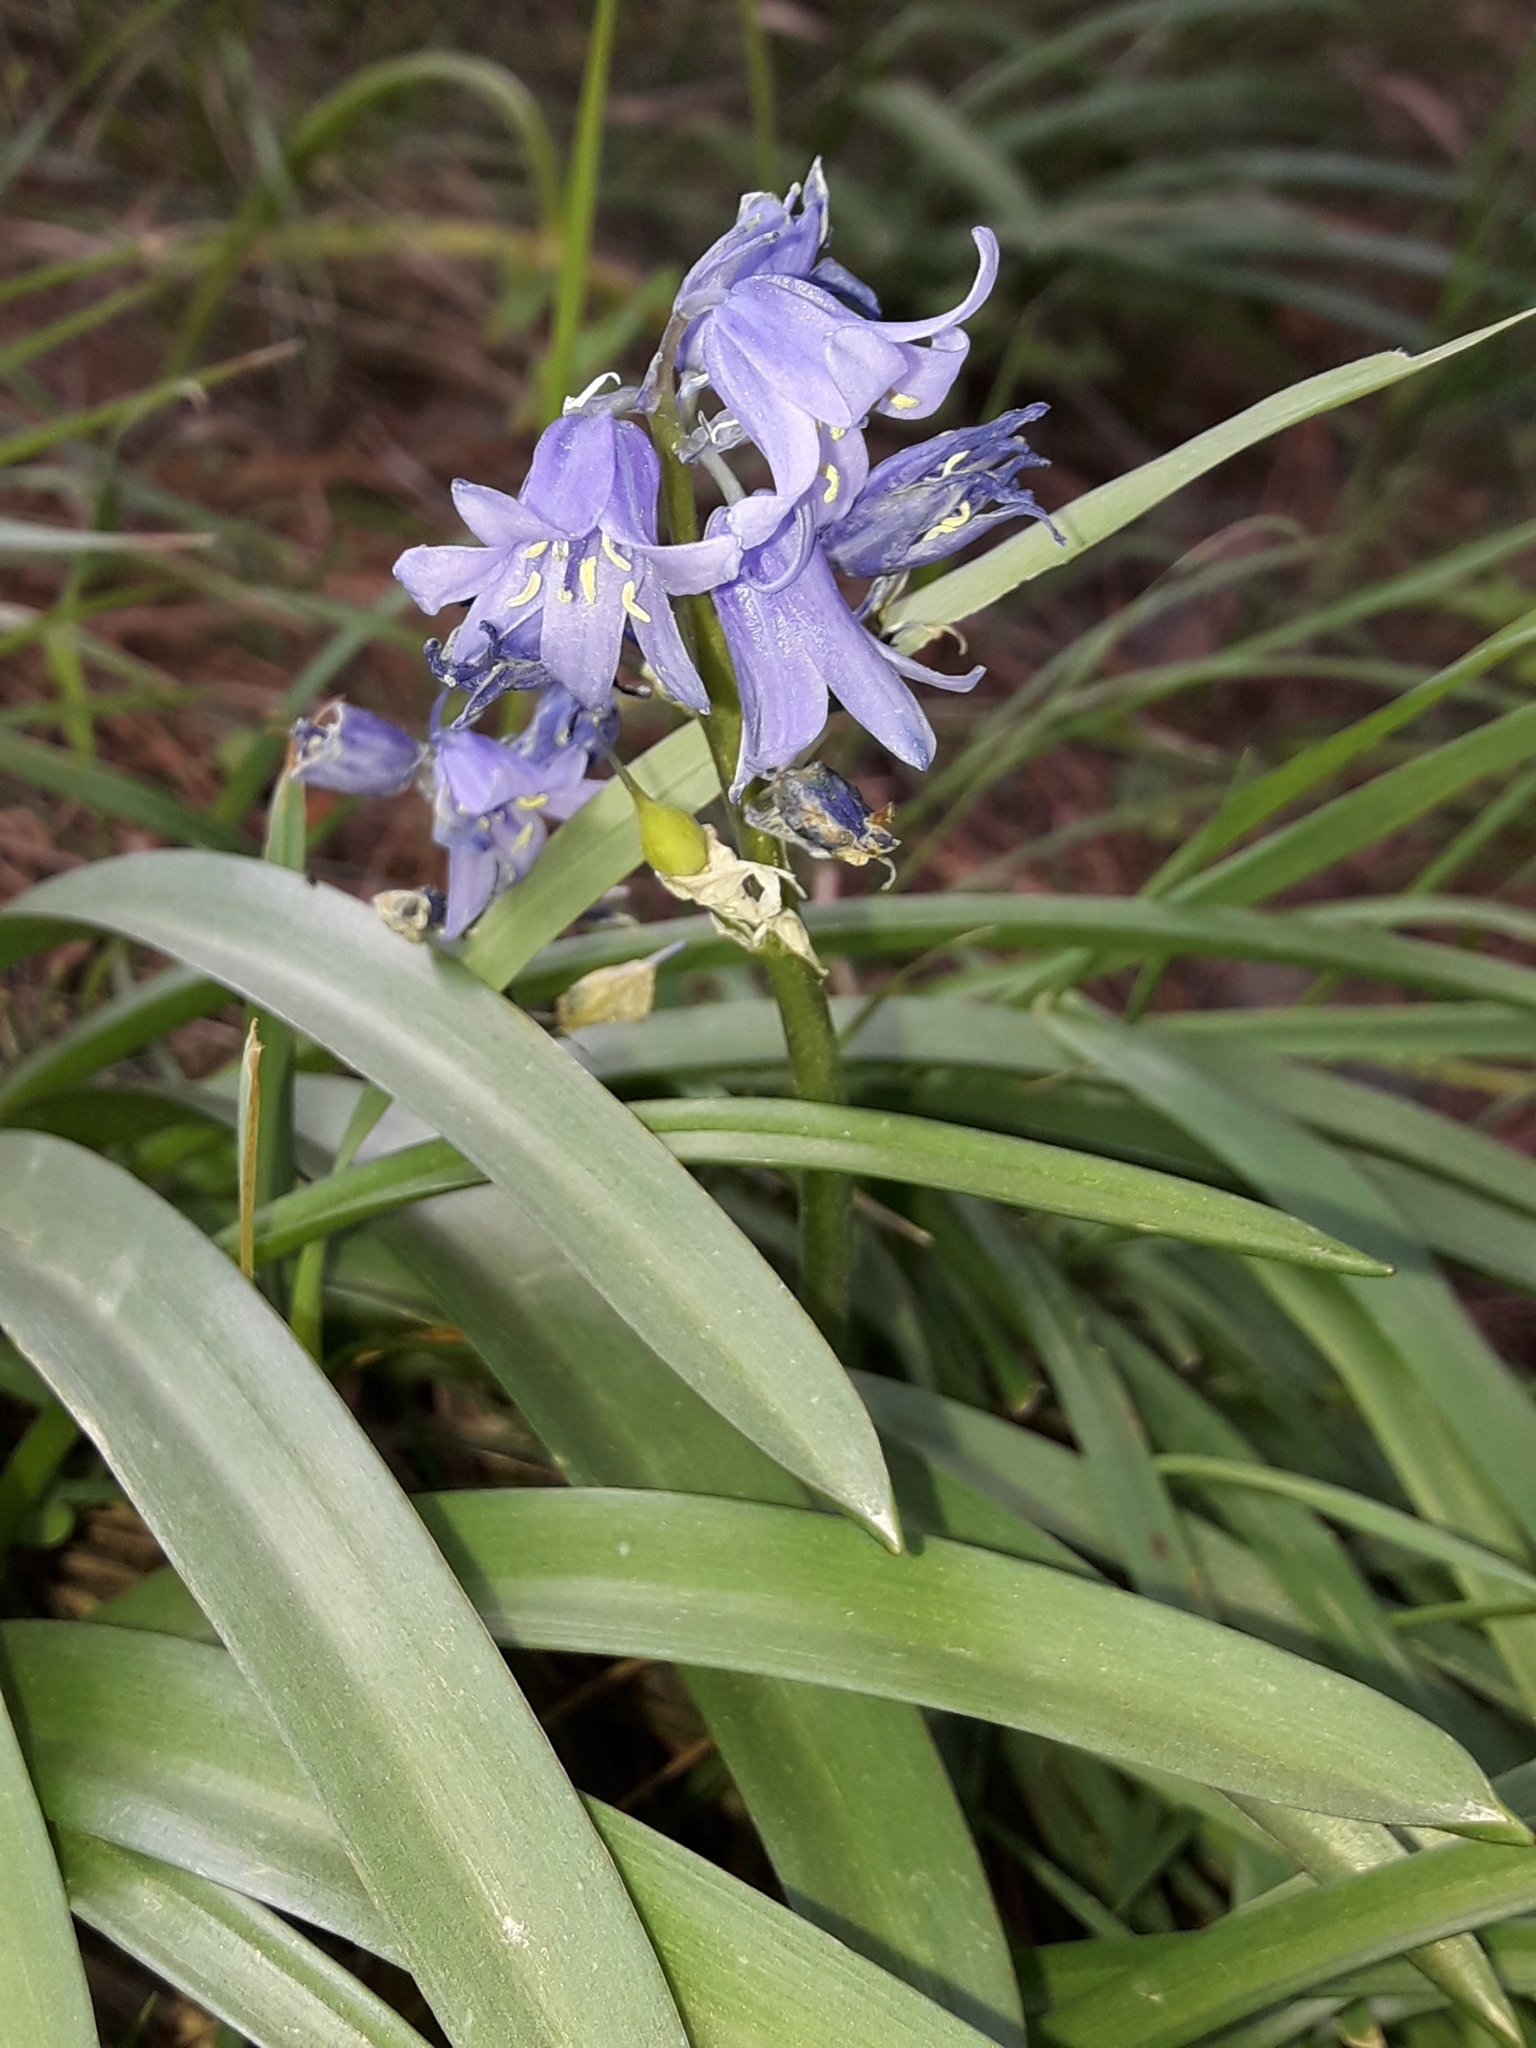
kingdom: Plantae
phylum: Tracheophyta
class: Liliopsida
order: Asparagales
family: Asparagaceae
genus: Hyacinthoides
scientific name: Hyacinthoides massartiana
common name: Hyacinthoides
